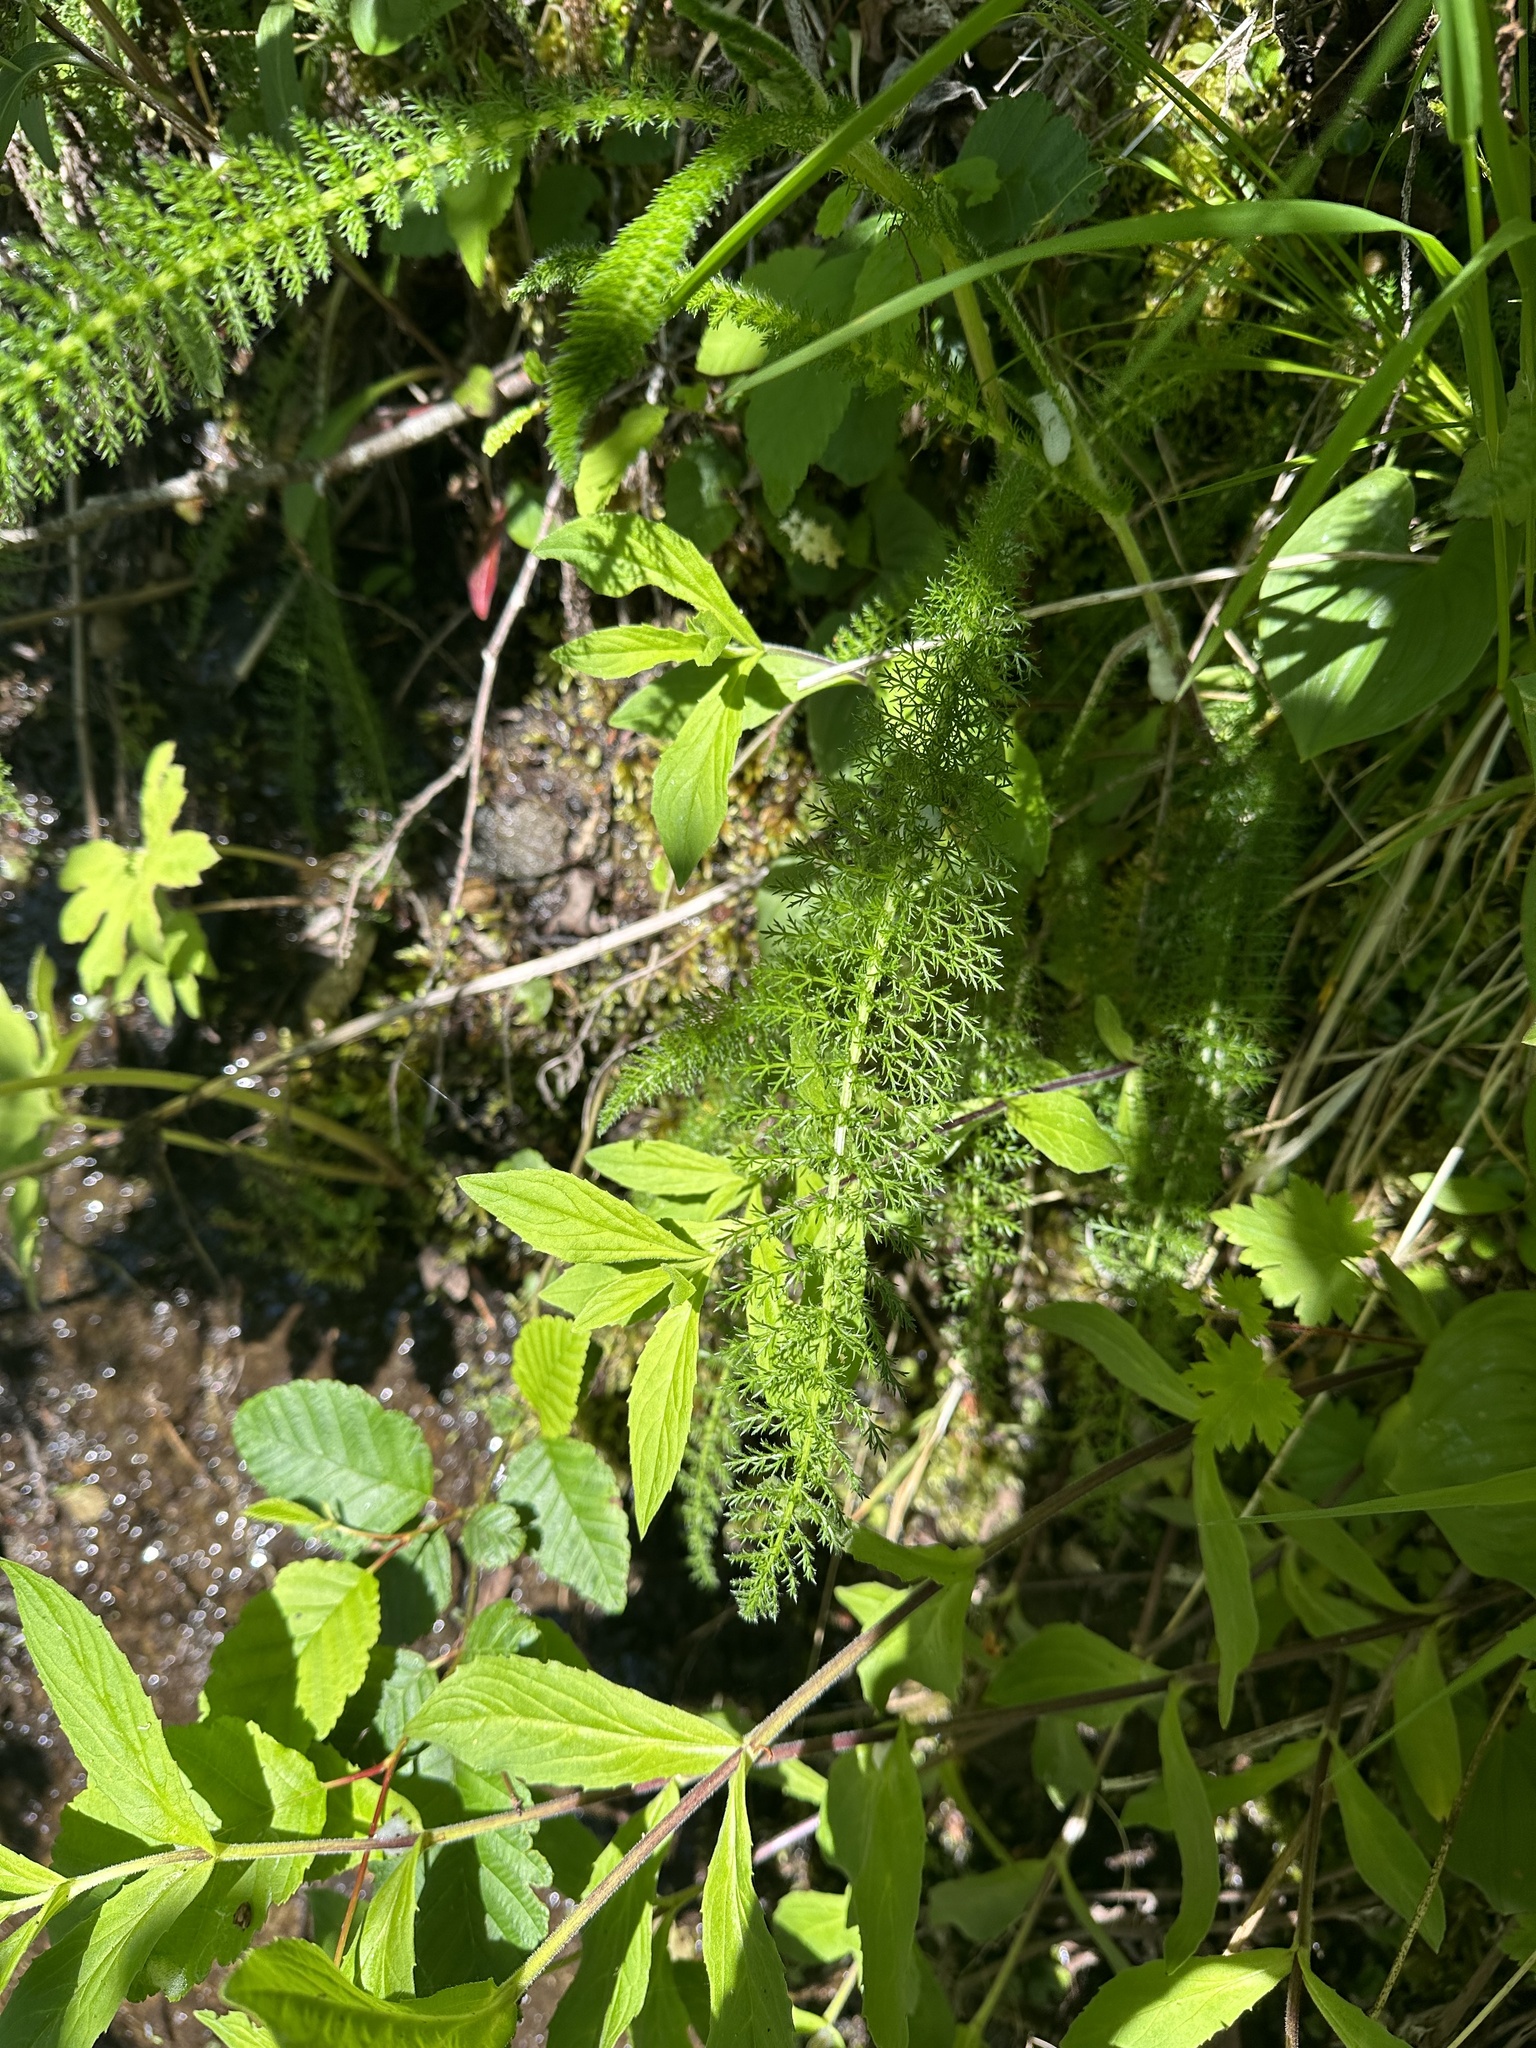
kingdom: Plantae
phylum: Tracheophyta
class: Magnoliopsida
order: Asterales
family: Asteraceae
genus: Achillea
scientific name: Achillea millefolium
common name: Yarrow
